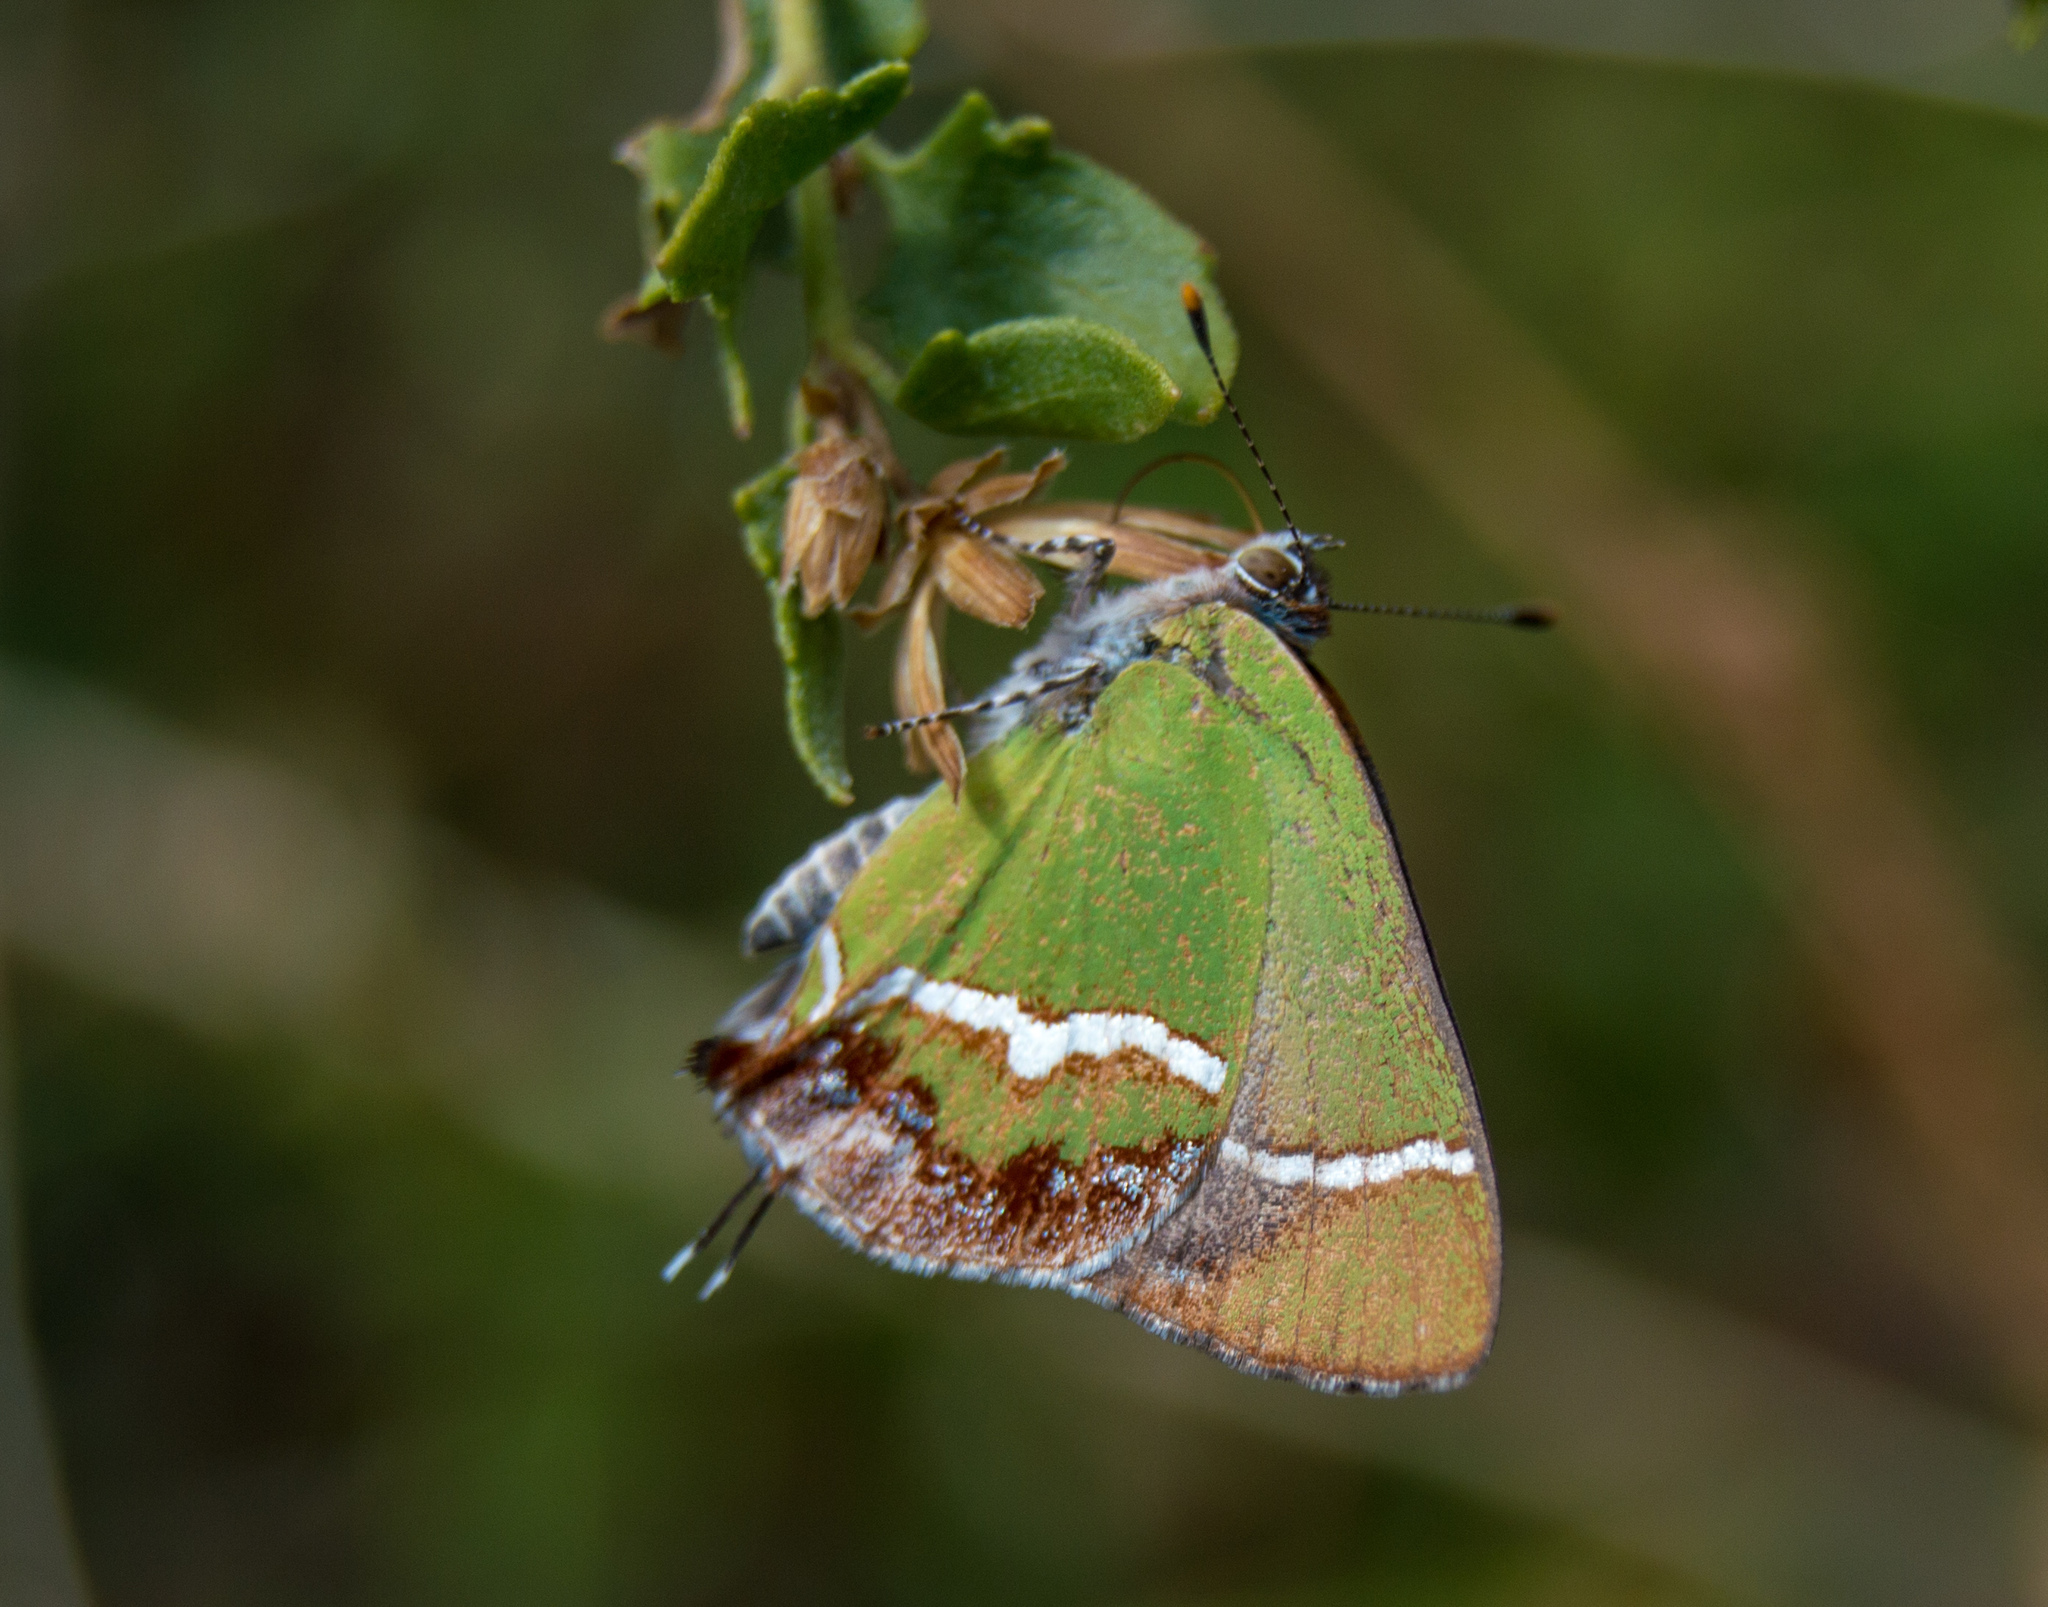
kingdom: Animalia
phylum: Arthropoda
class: Insecta
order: Lepidoptera
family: Lycaenidae
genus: Chlorostrymon
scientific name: Chlorostrymon simaethis
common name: Silver-banded hairstreak
